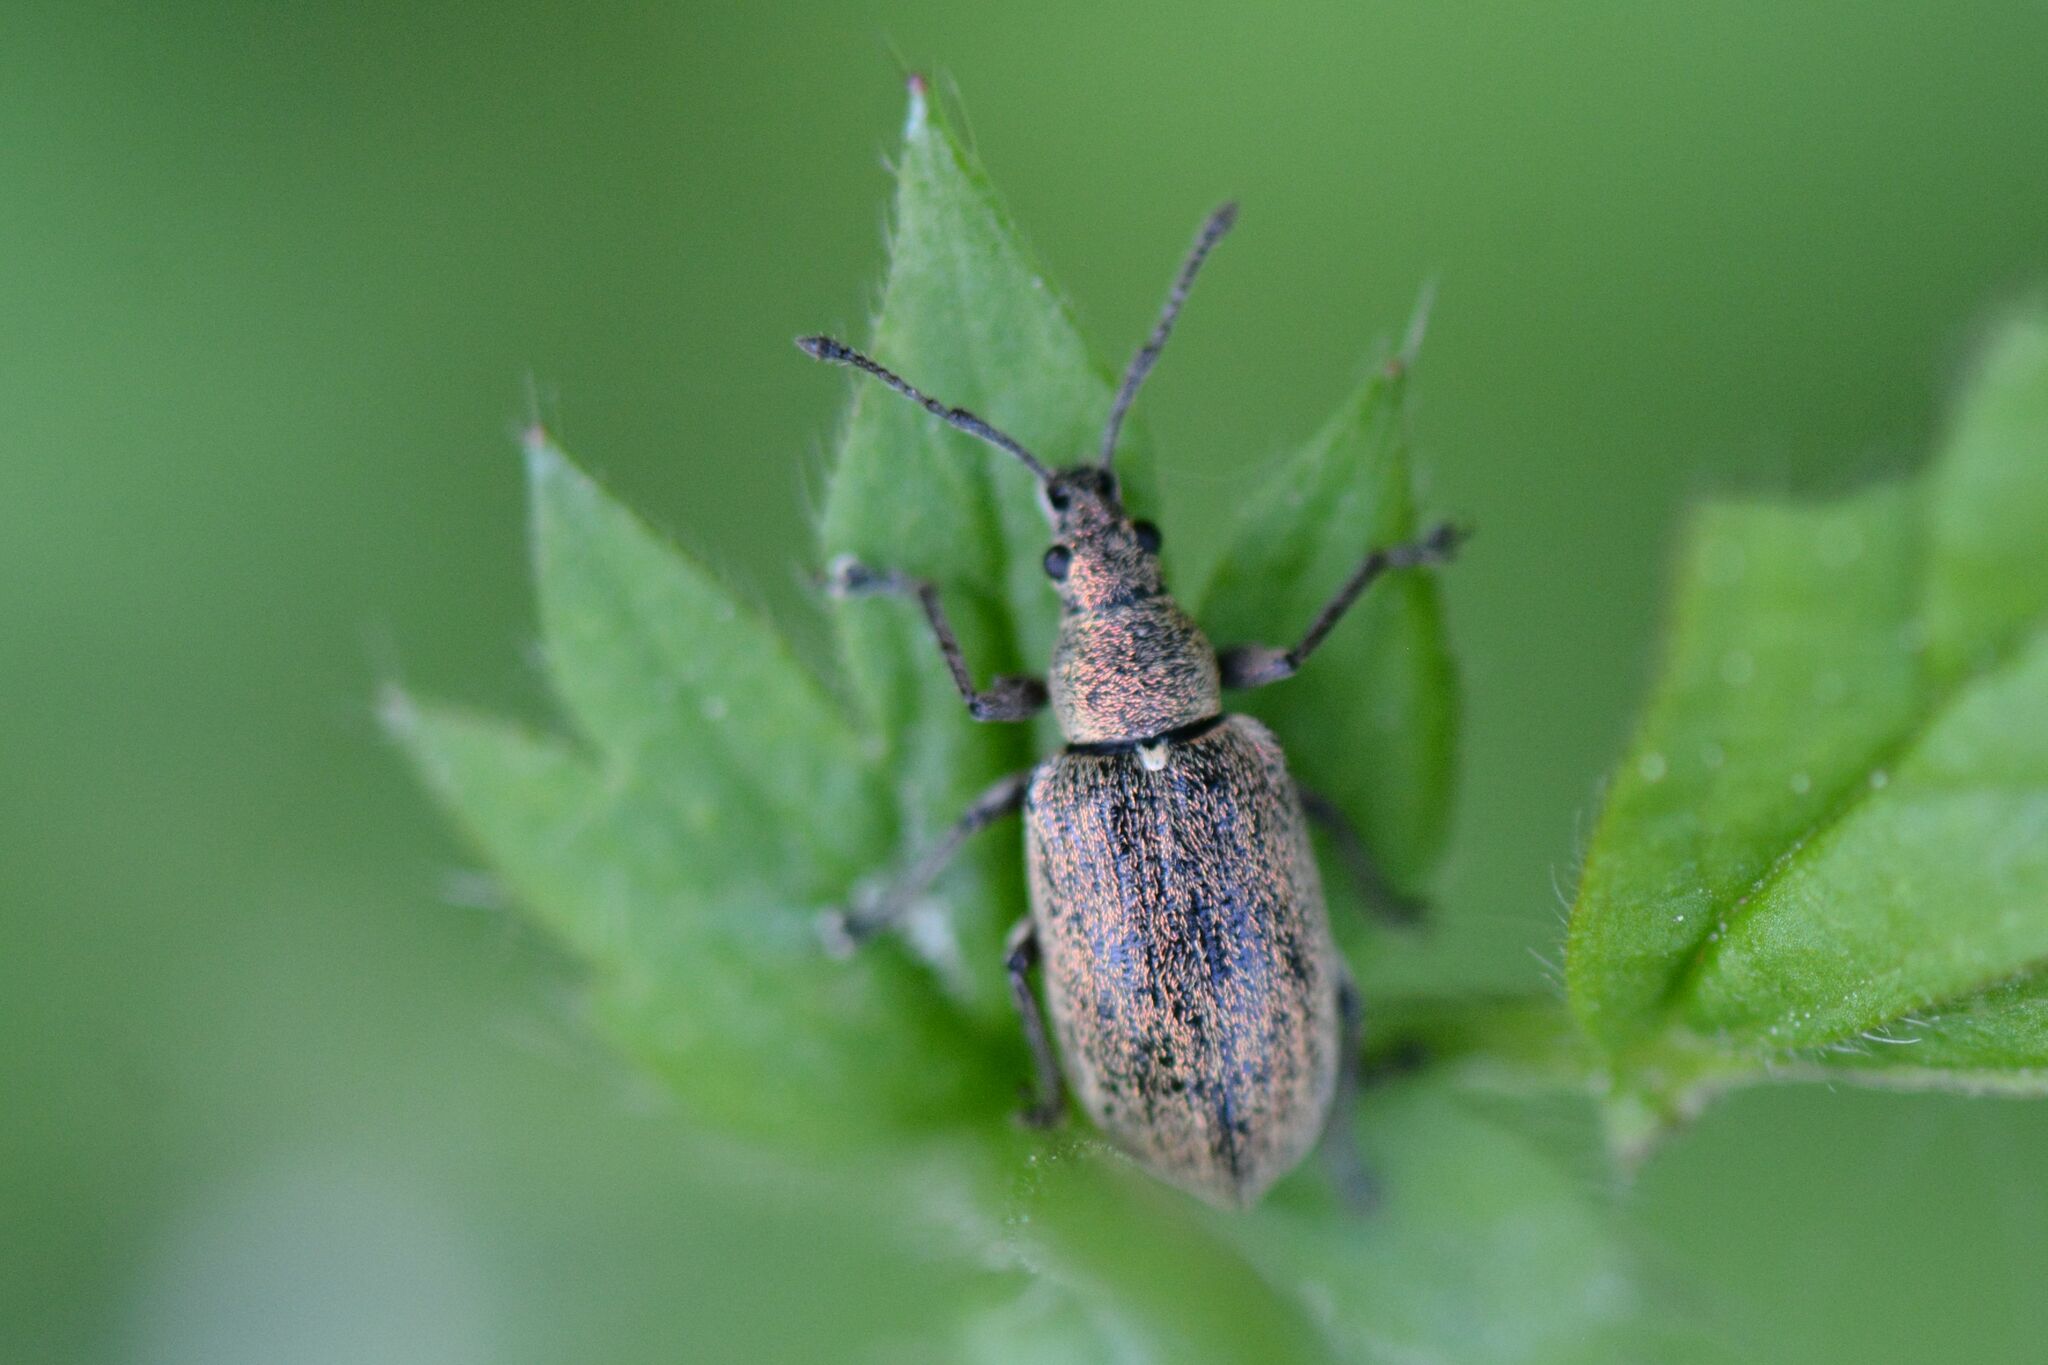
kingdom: Animalia
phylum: Arthropoda
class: Insecta
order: Coleoptera
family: Curculionidae
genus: Phyllobius
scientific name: Phyllobius pyri
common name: Common leaf weevil
